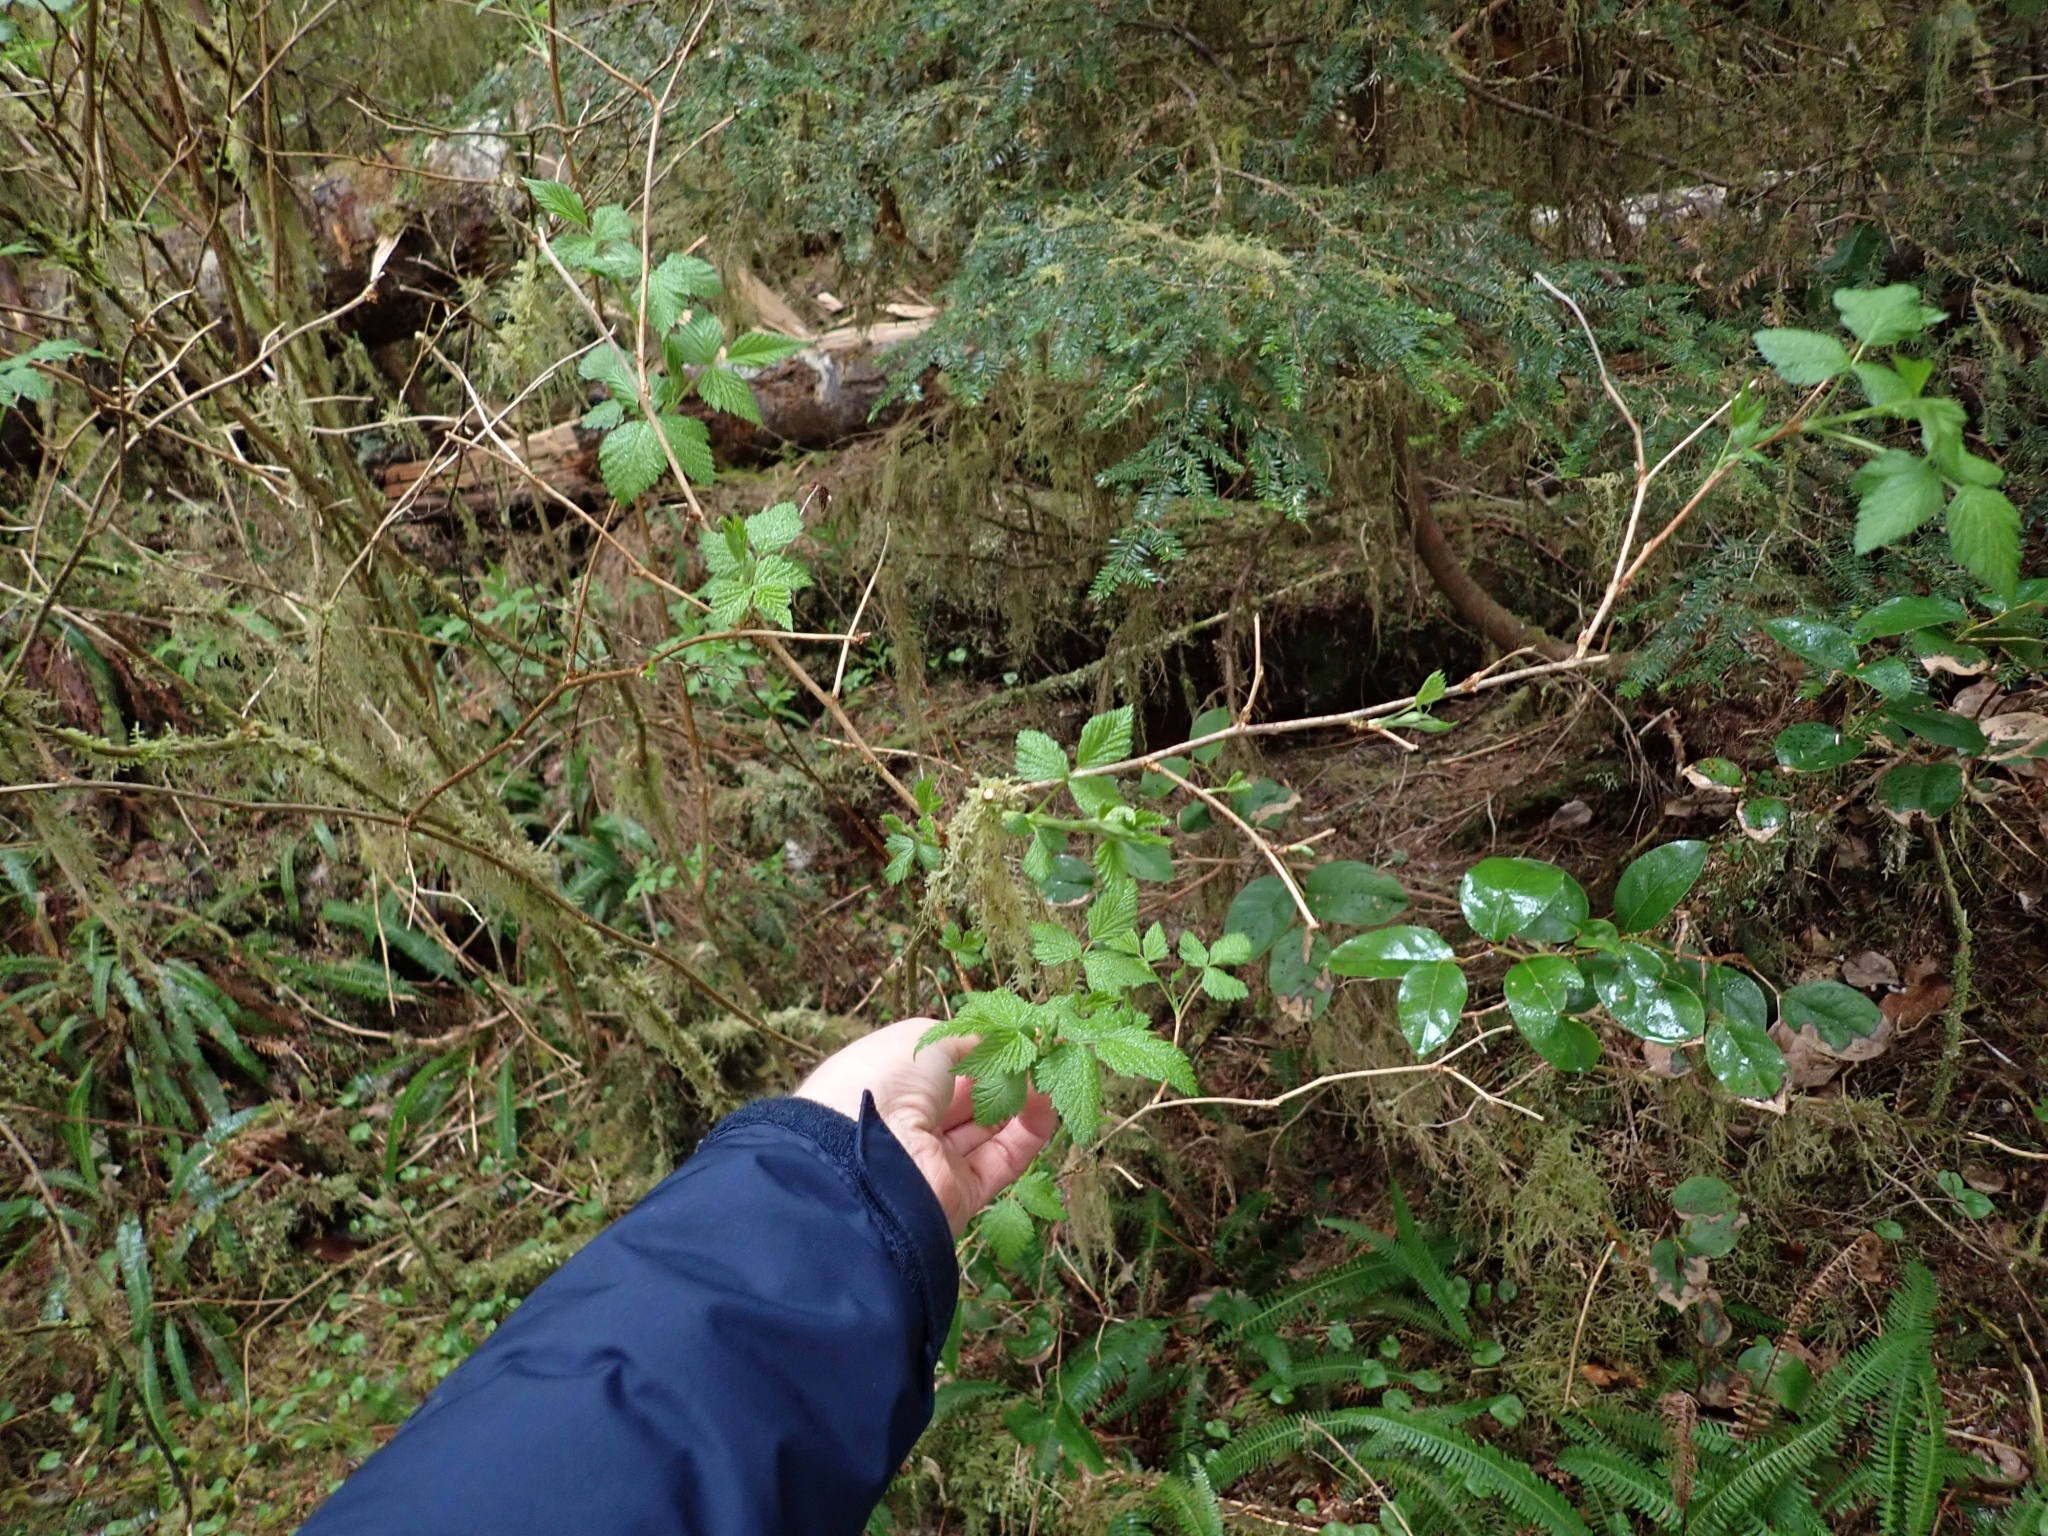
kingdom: Plantae
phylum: Tracheophyta
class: Magnoliopsida
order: Rosales
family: Rosaceae
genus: Rubus
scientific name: Rubus spectabilis
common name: Salmonberry
